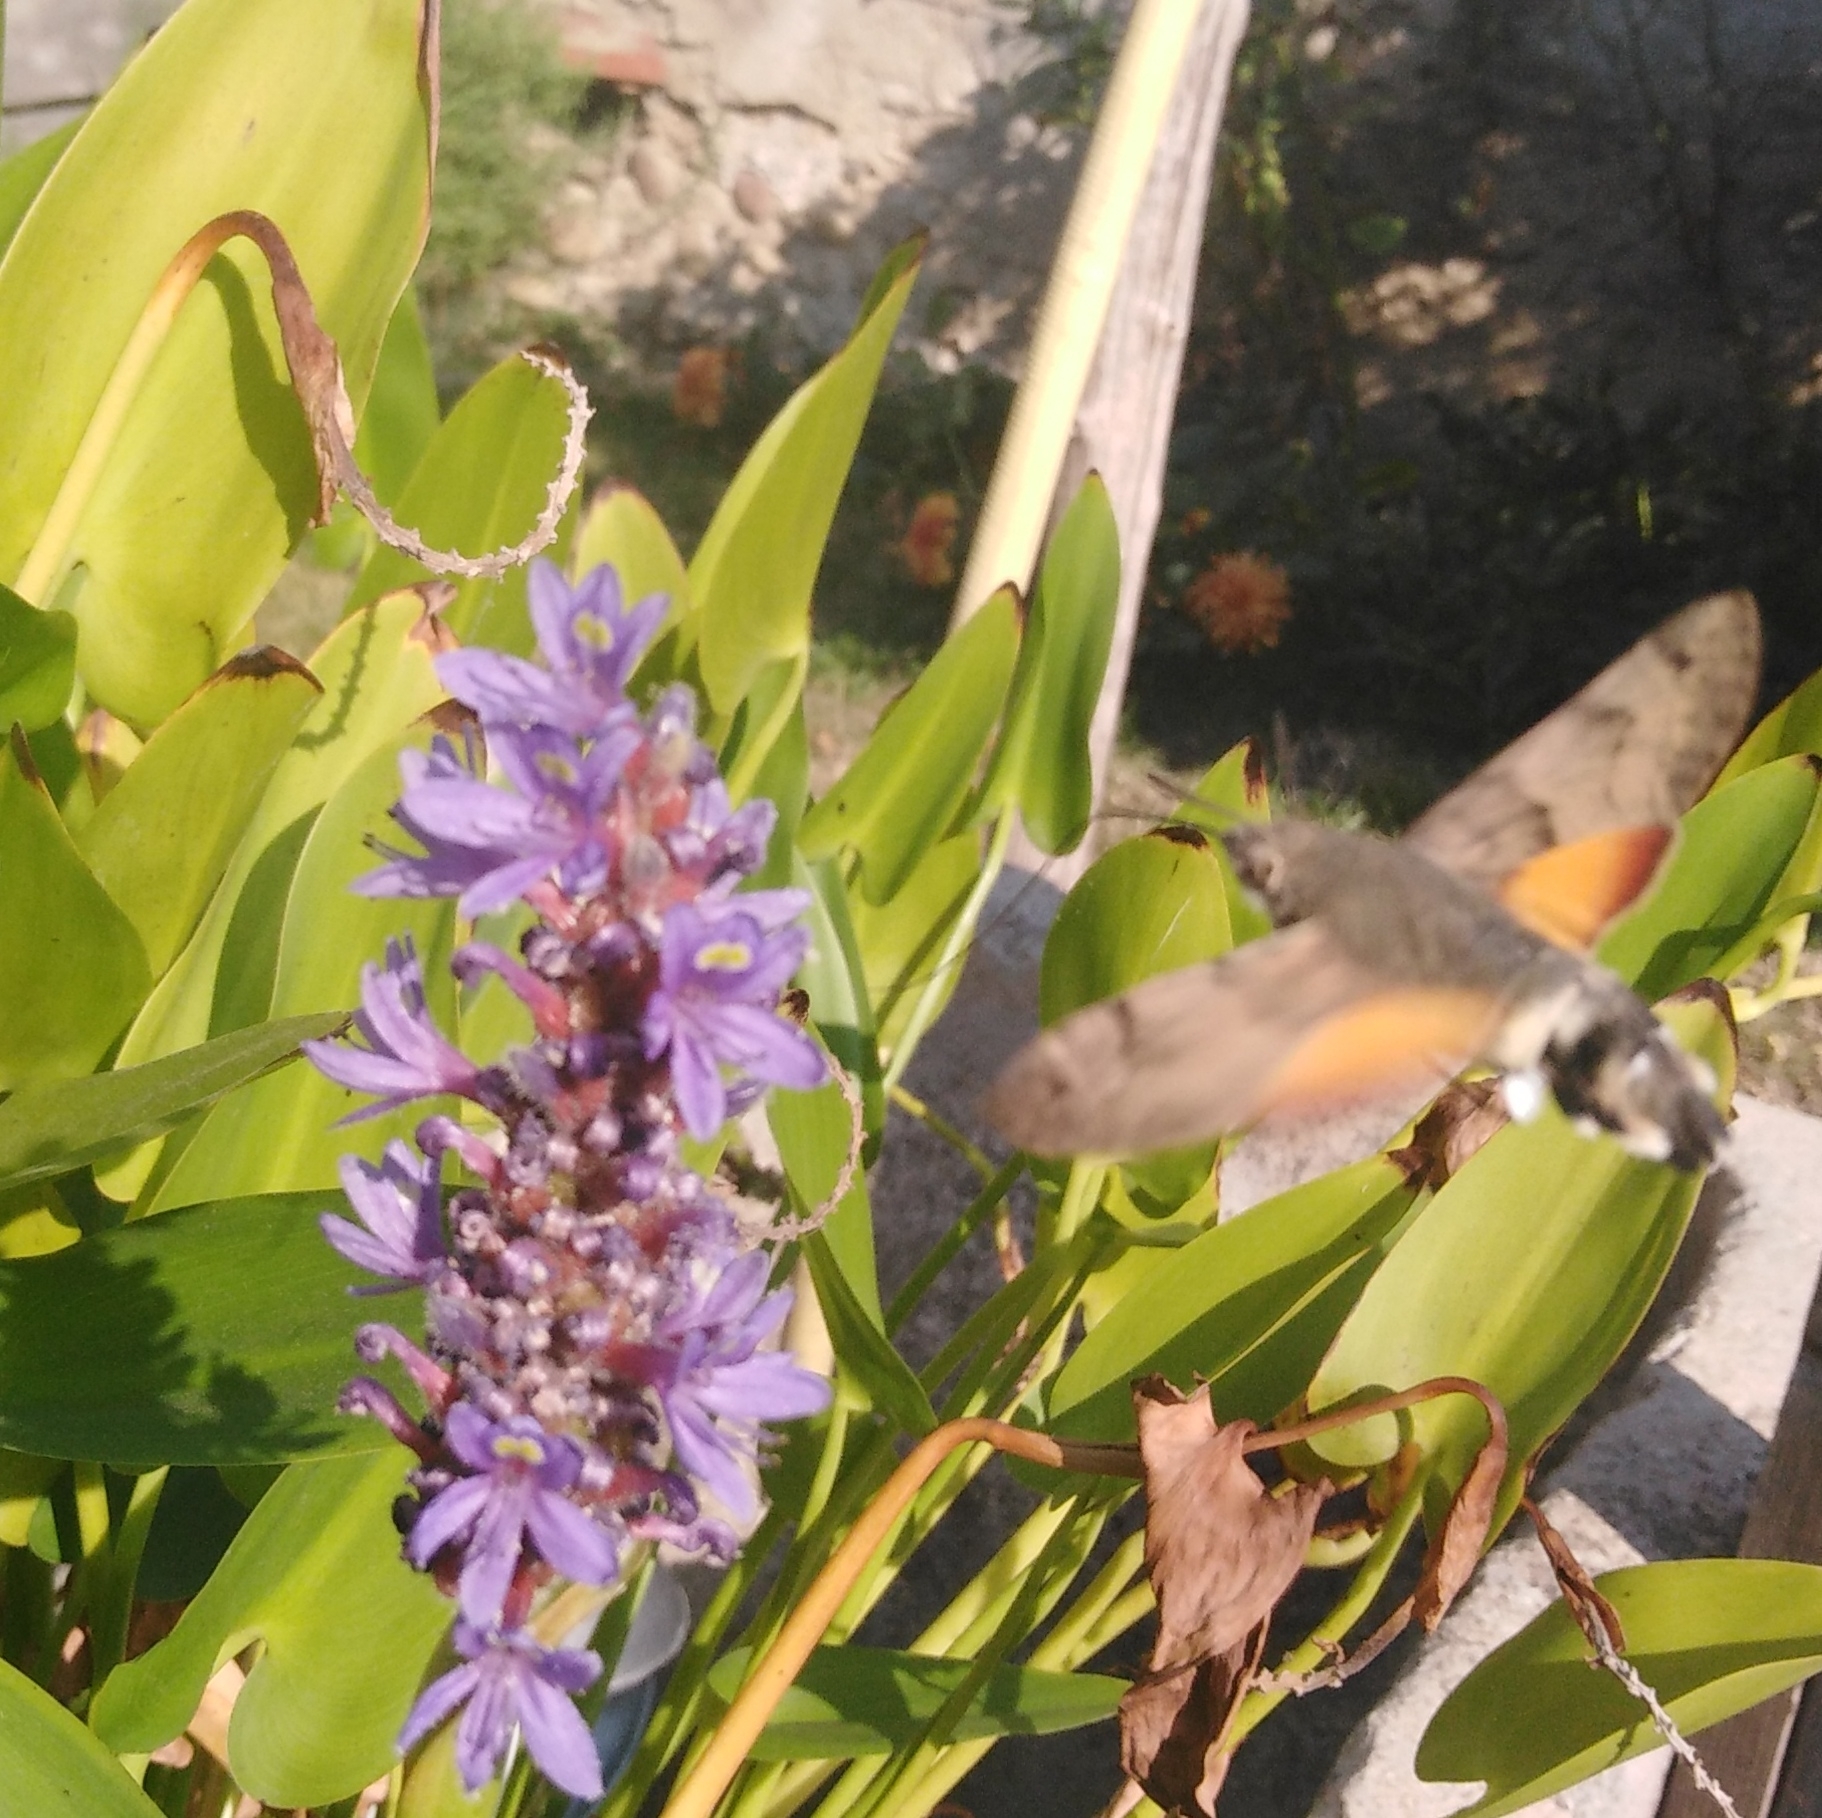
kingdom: Animalia
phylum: Arthropoda
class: Insecta
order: Lepidoptera
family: Sphingidae
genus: Macroglossum
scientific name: Macroglossum stellatarum
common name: Humming-bird hawk-moth
